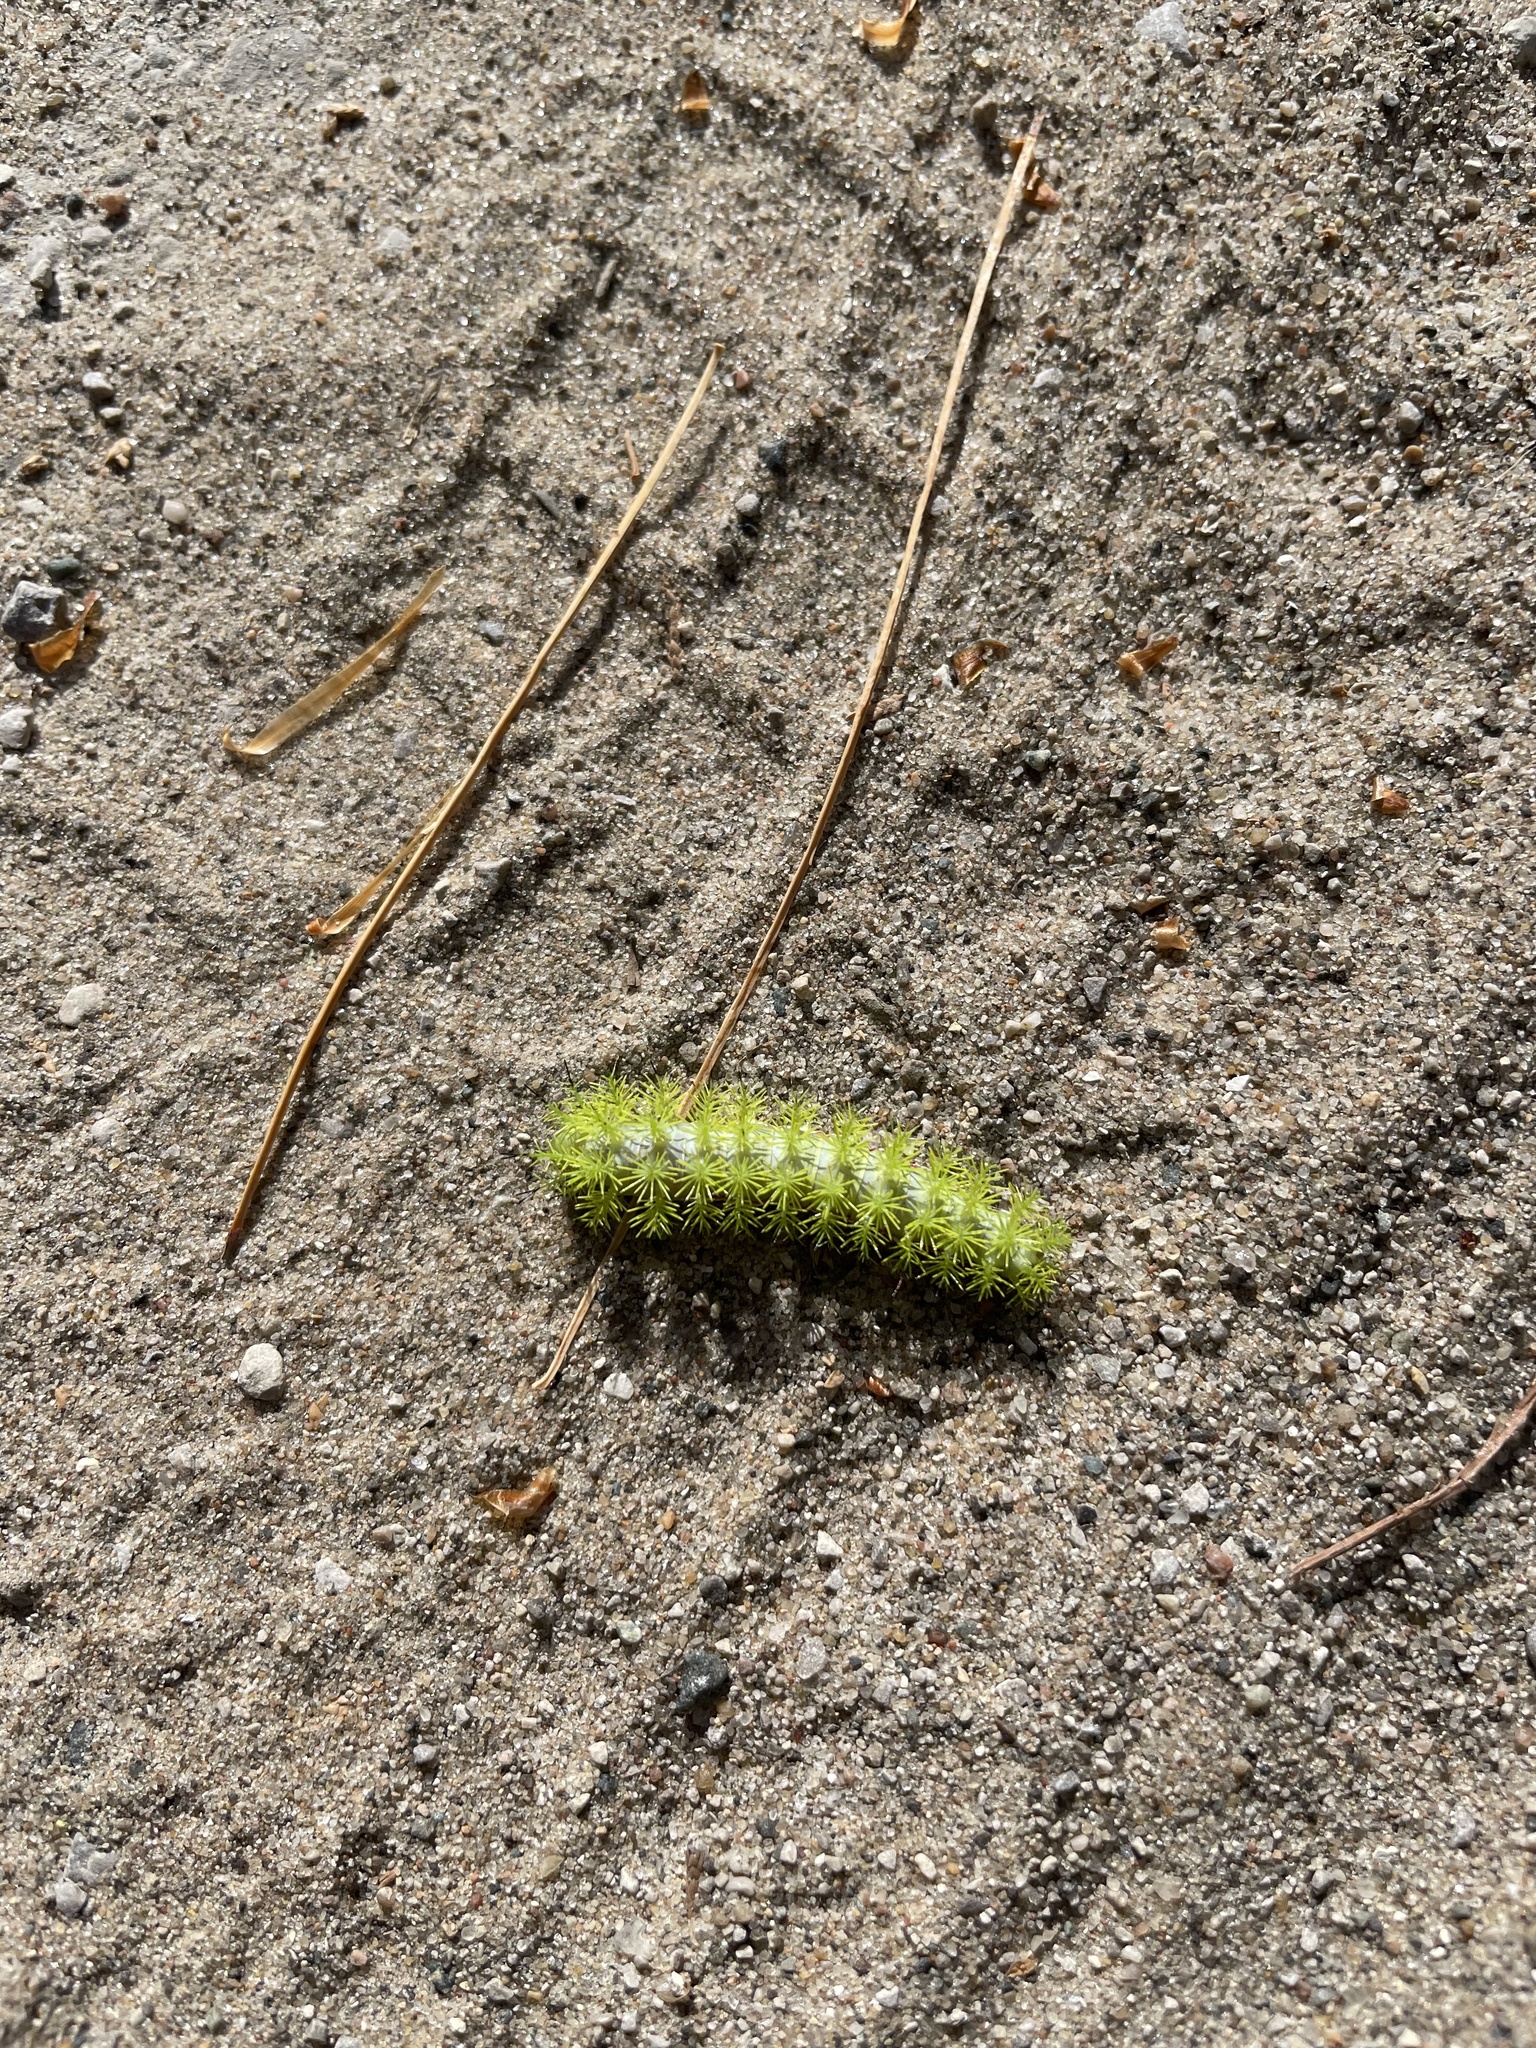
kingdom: Animalia
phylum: Arthropoda
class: Insecta
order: Lepidoptera
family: Saturniidae
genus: Automeris
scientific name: Automeris io
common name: Io moth
